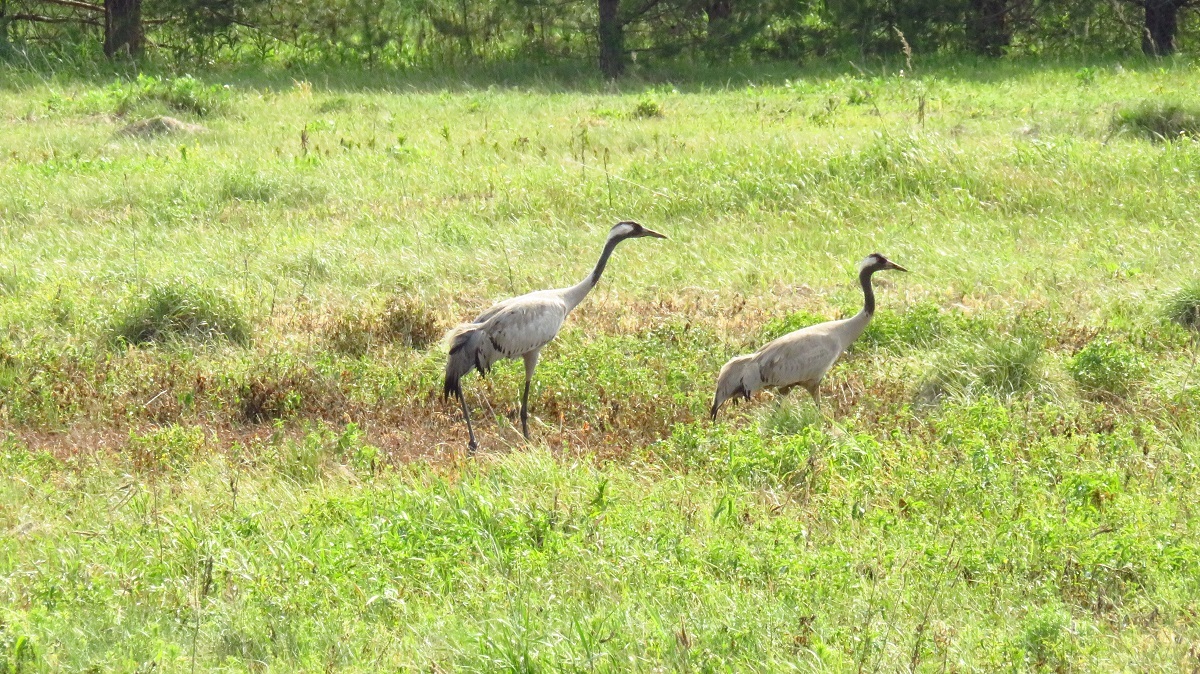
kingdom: Animalia
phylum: Chordata
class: Aves
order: Gruiformes
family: Gruidae
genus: Grus
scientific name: Grus grus
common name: Common crane
